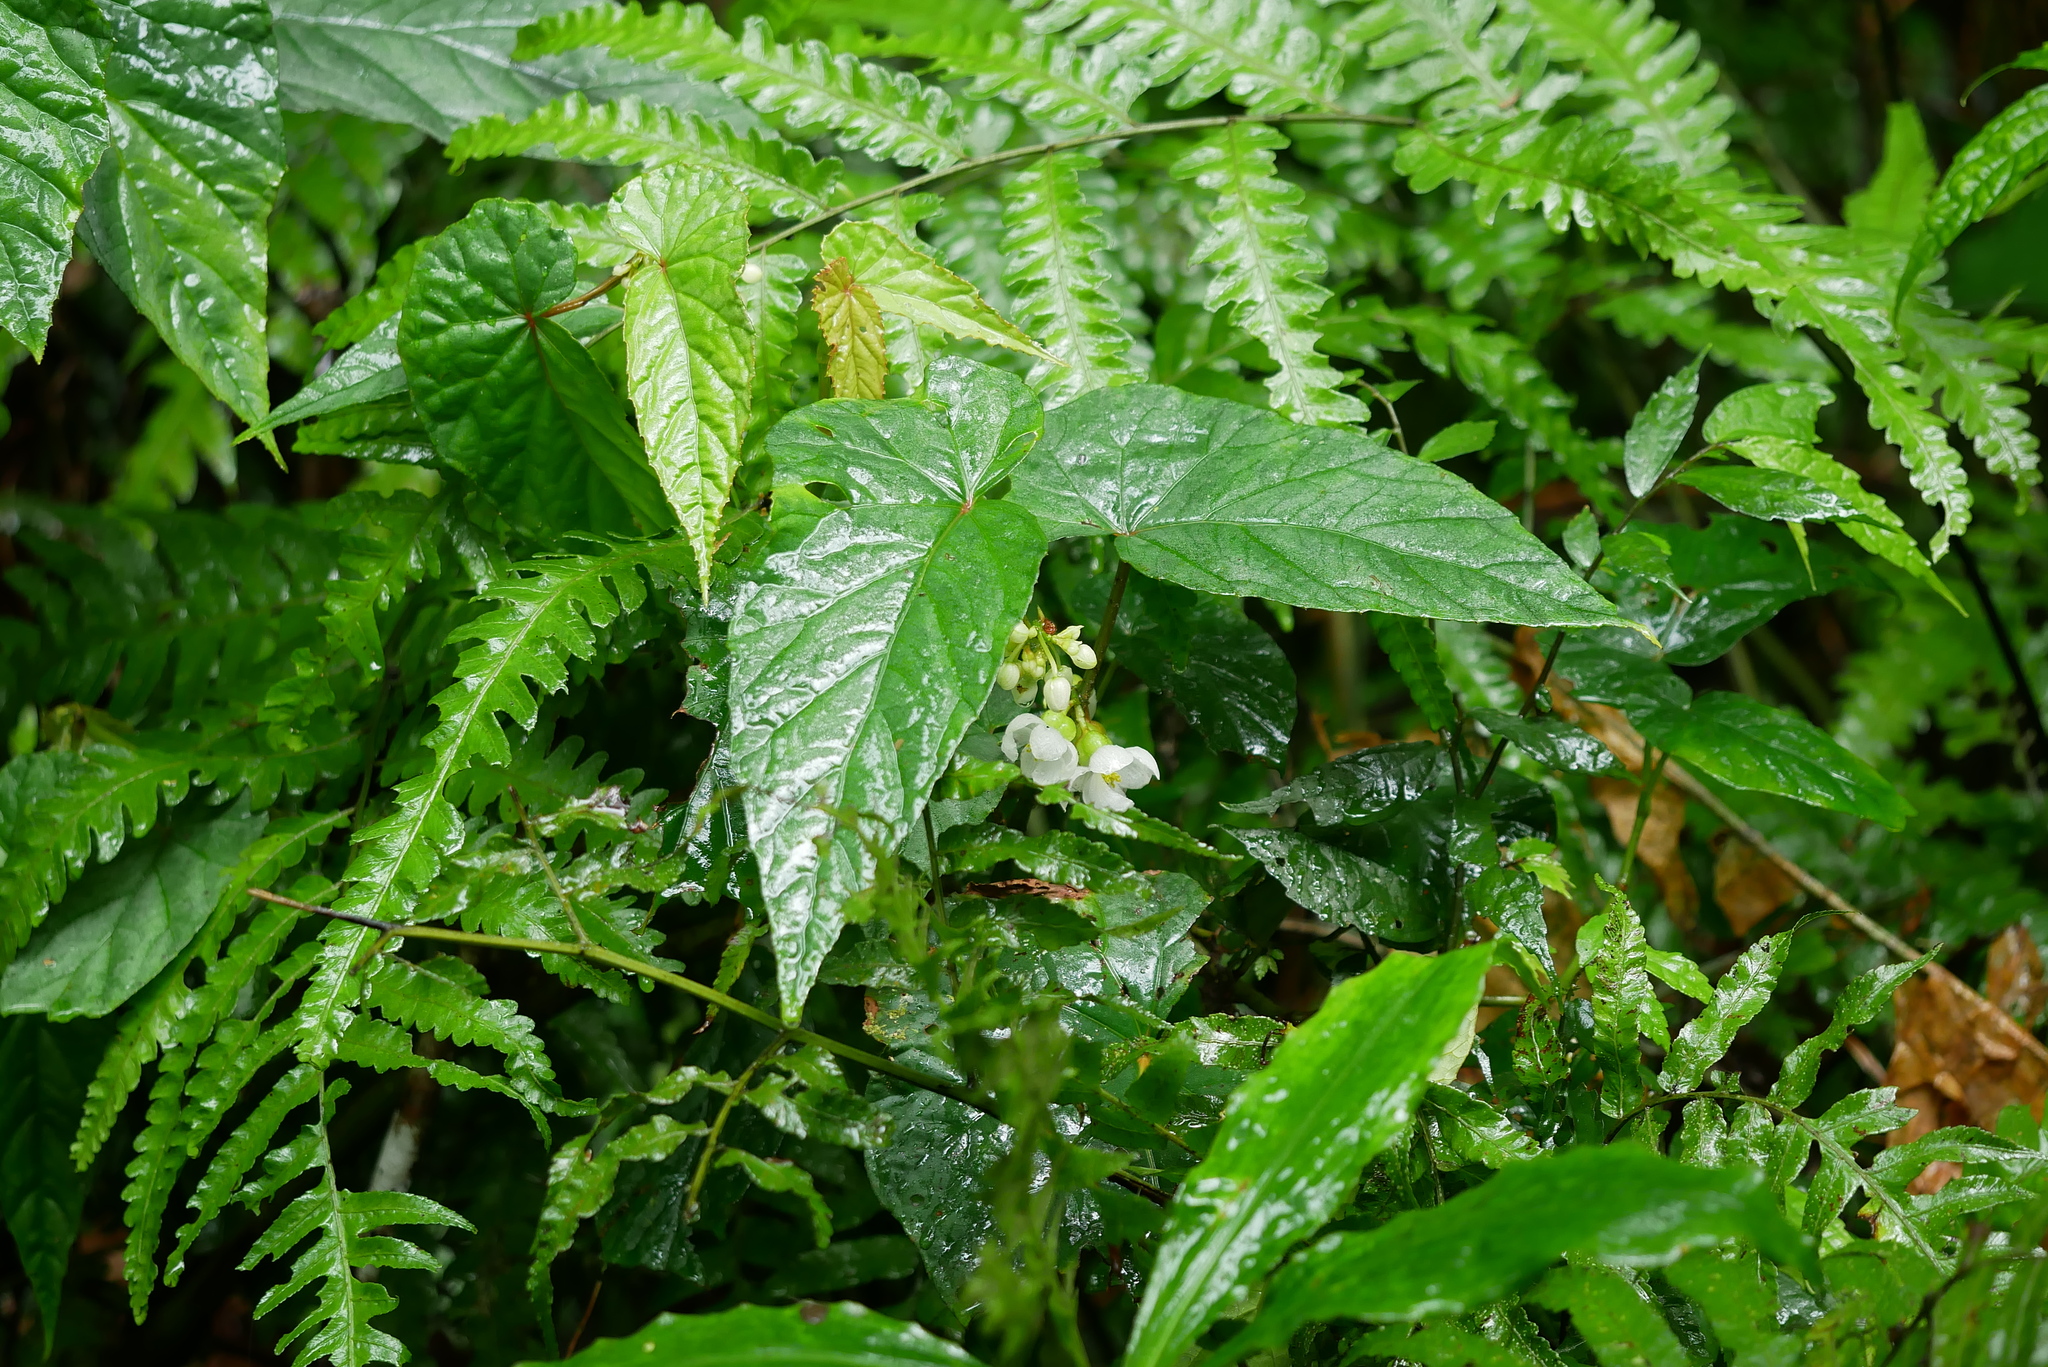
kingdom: Plantae
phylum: Tracheophyta
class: Magnoliopsida
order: Cucurbitales
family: Begoniaceae
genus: Begonia
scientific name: Begonia longifolia
